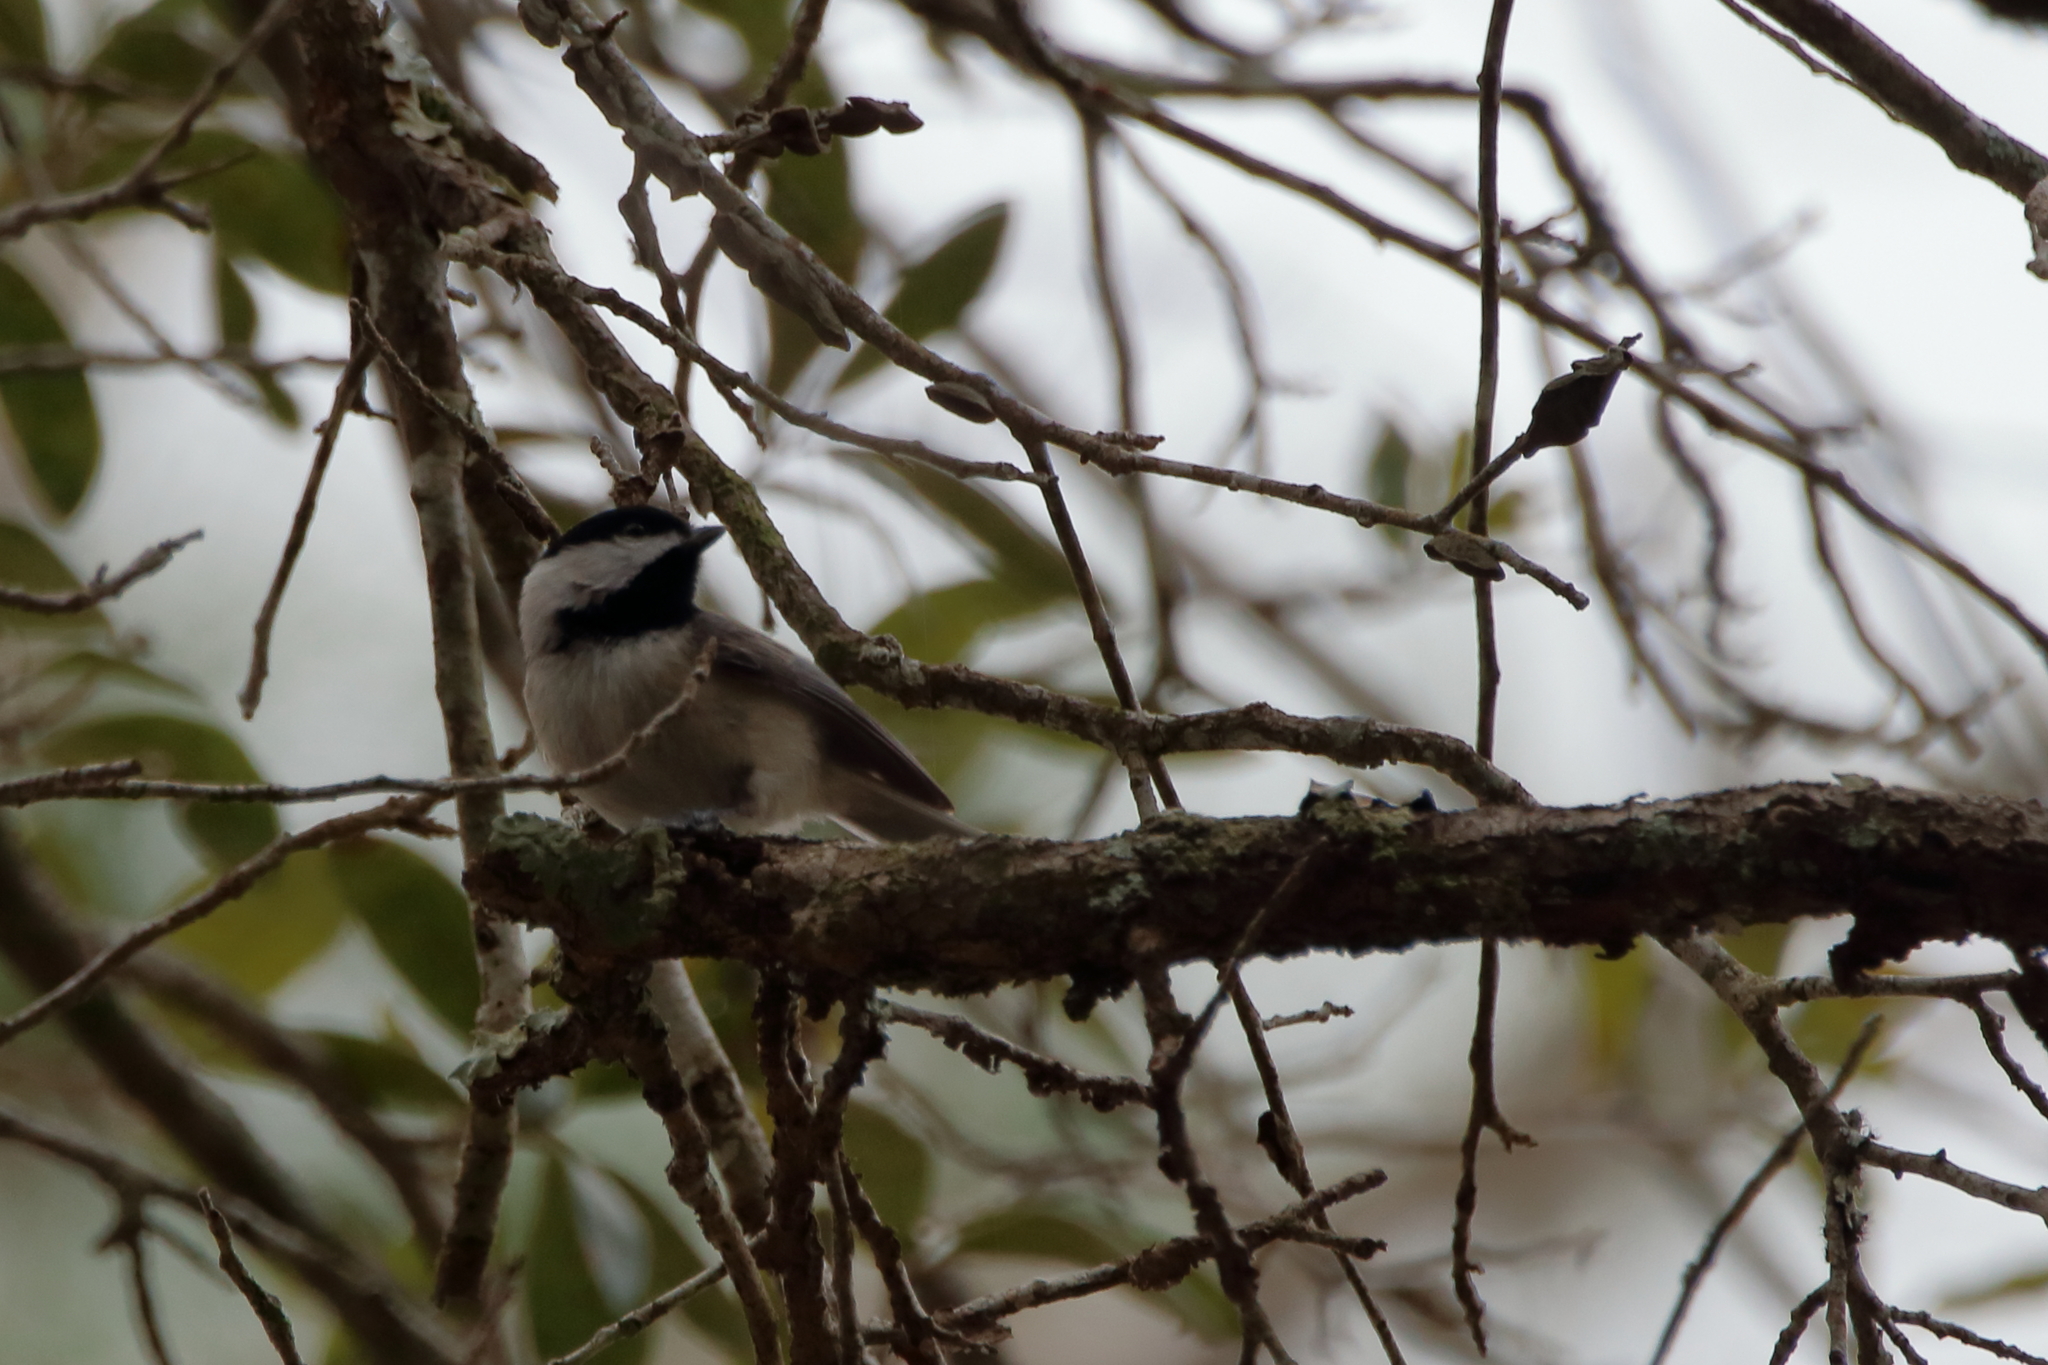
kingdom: Animalia
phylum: Chordata
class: Aves
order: Passeriformes
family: Paridae
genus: Poecile
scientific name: Poecile carolinensis
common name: Carolina chickadee
